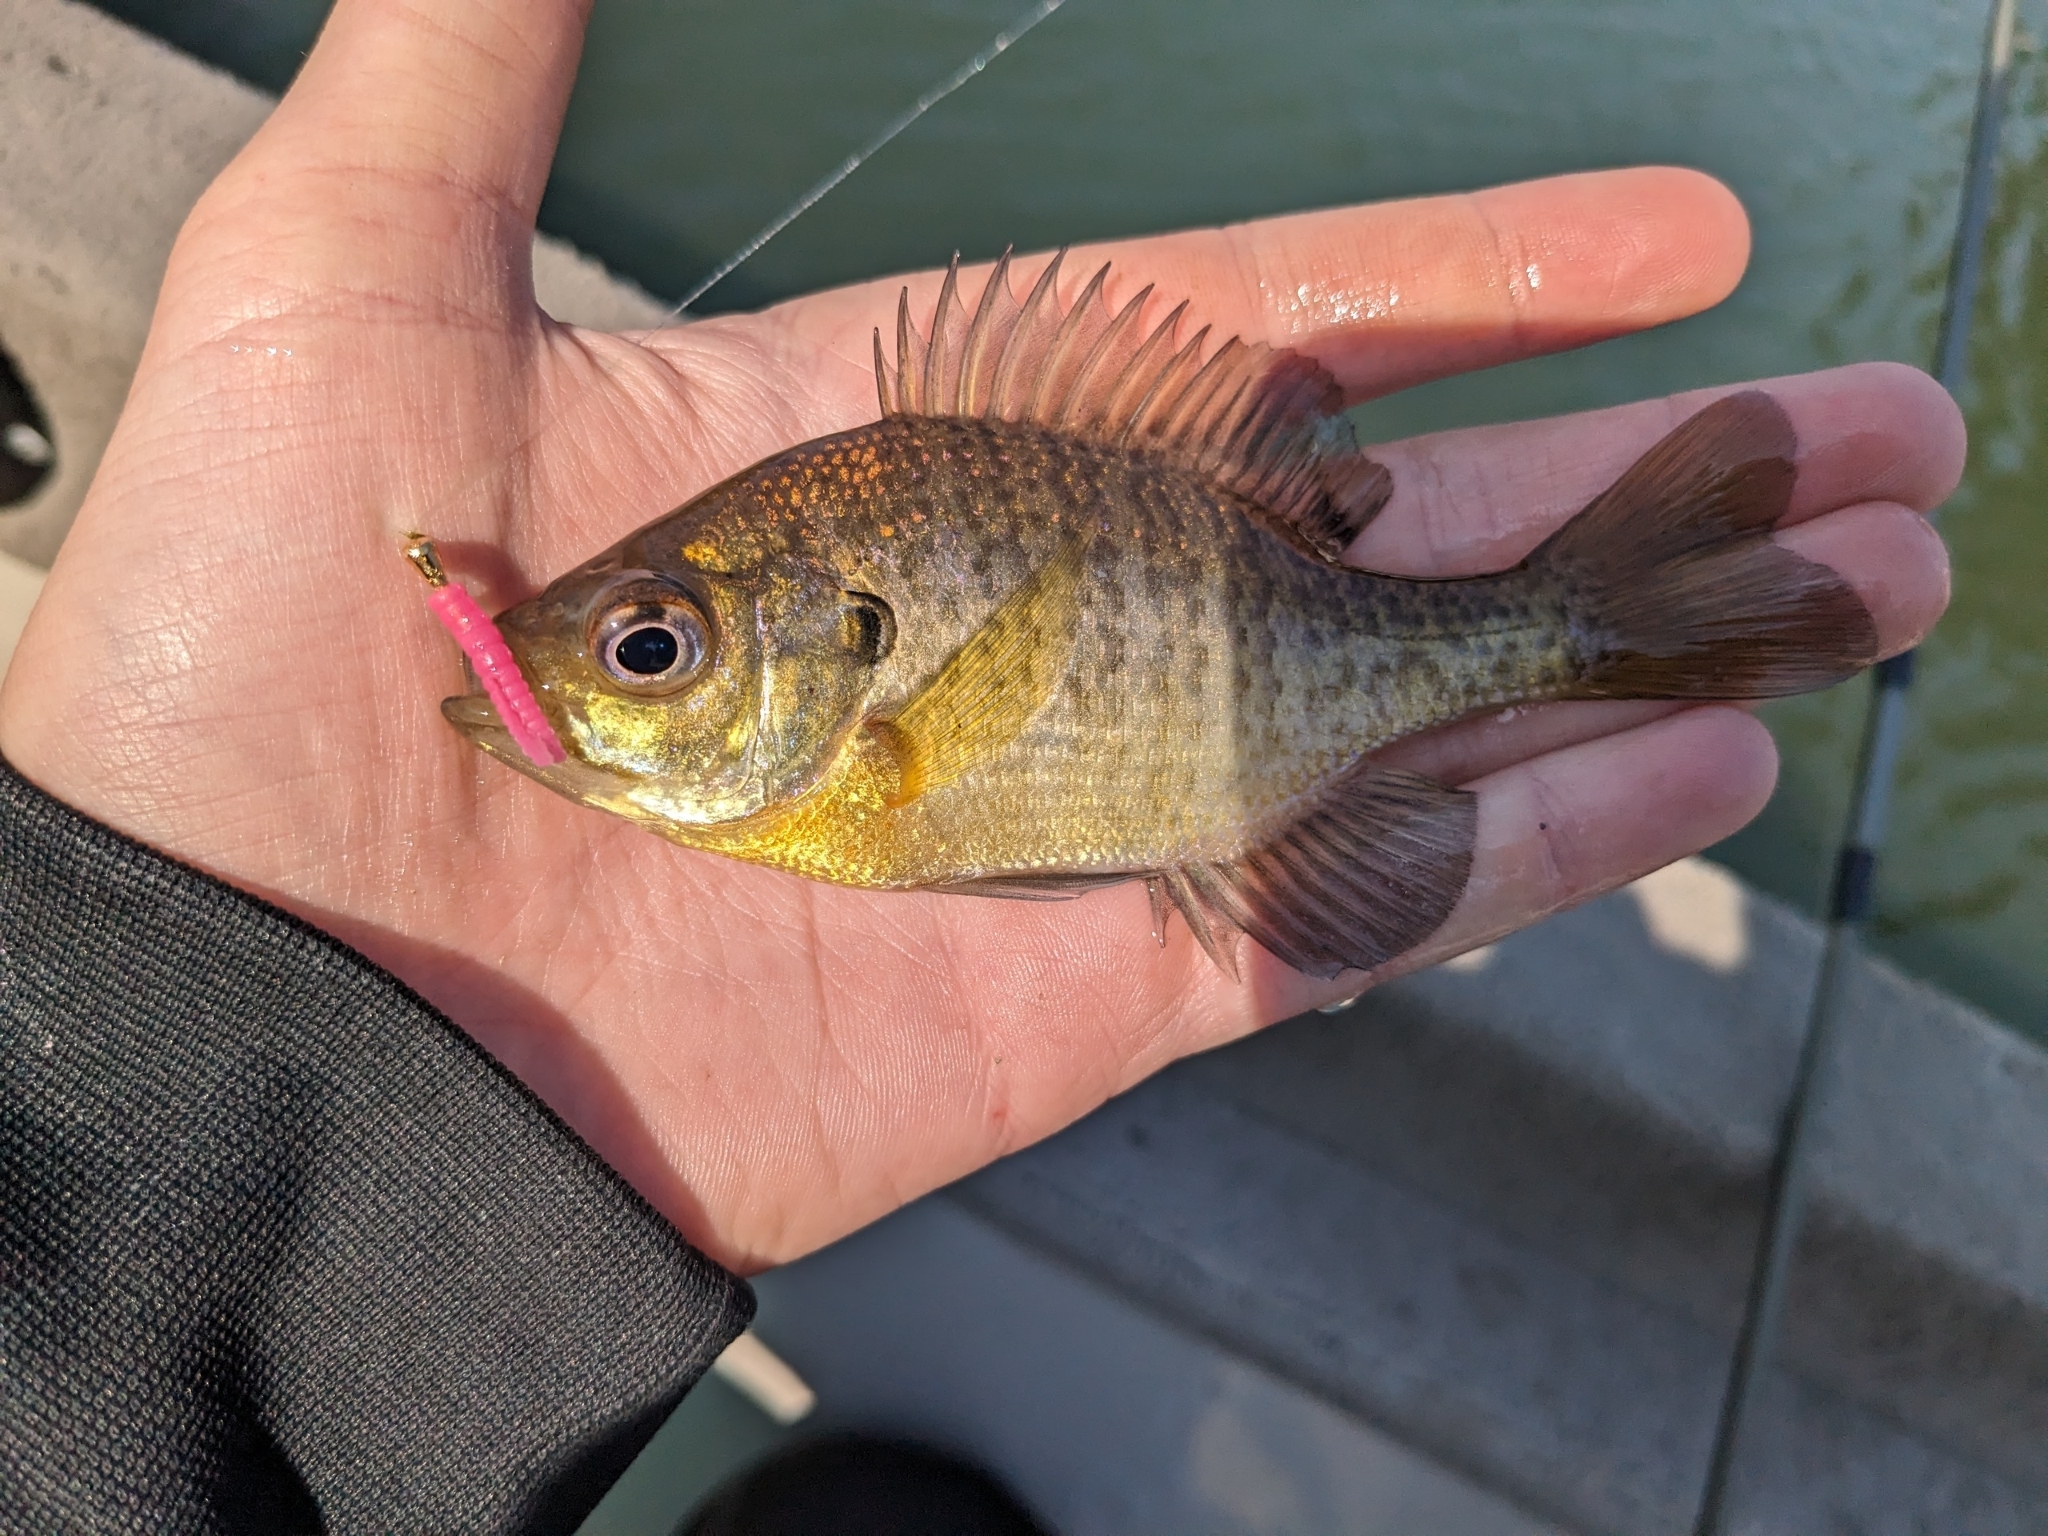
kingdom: Animalia
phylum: Chordata
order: Perciformes
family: Centrarchidae
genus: Lepomis
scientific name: Lepomis macrochirus
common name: Bluegill
